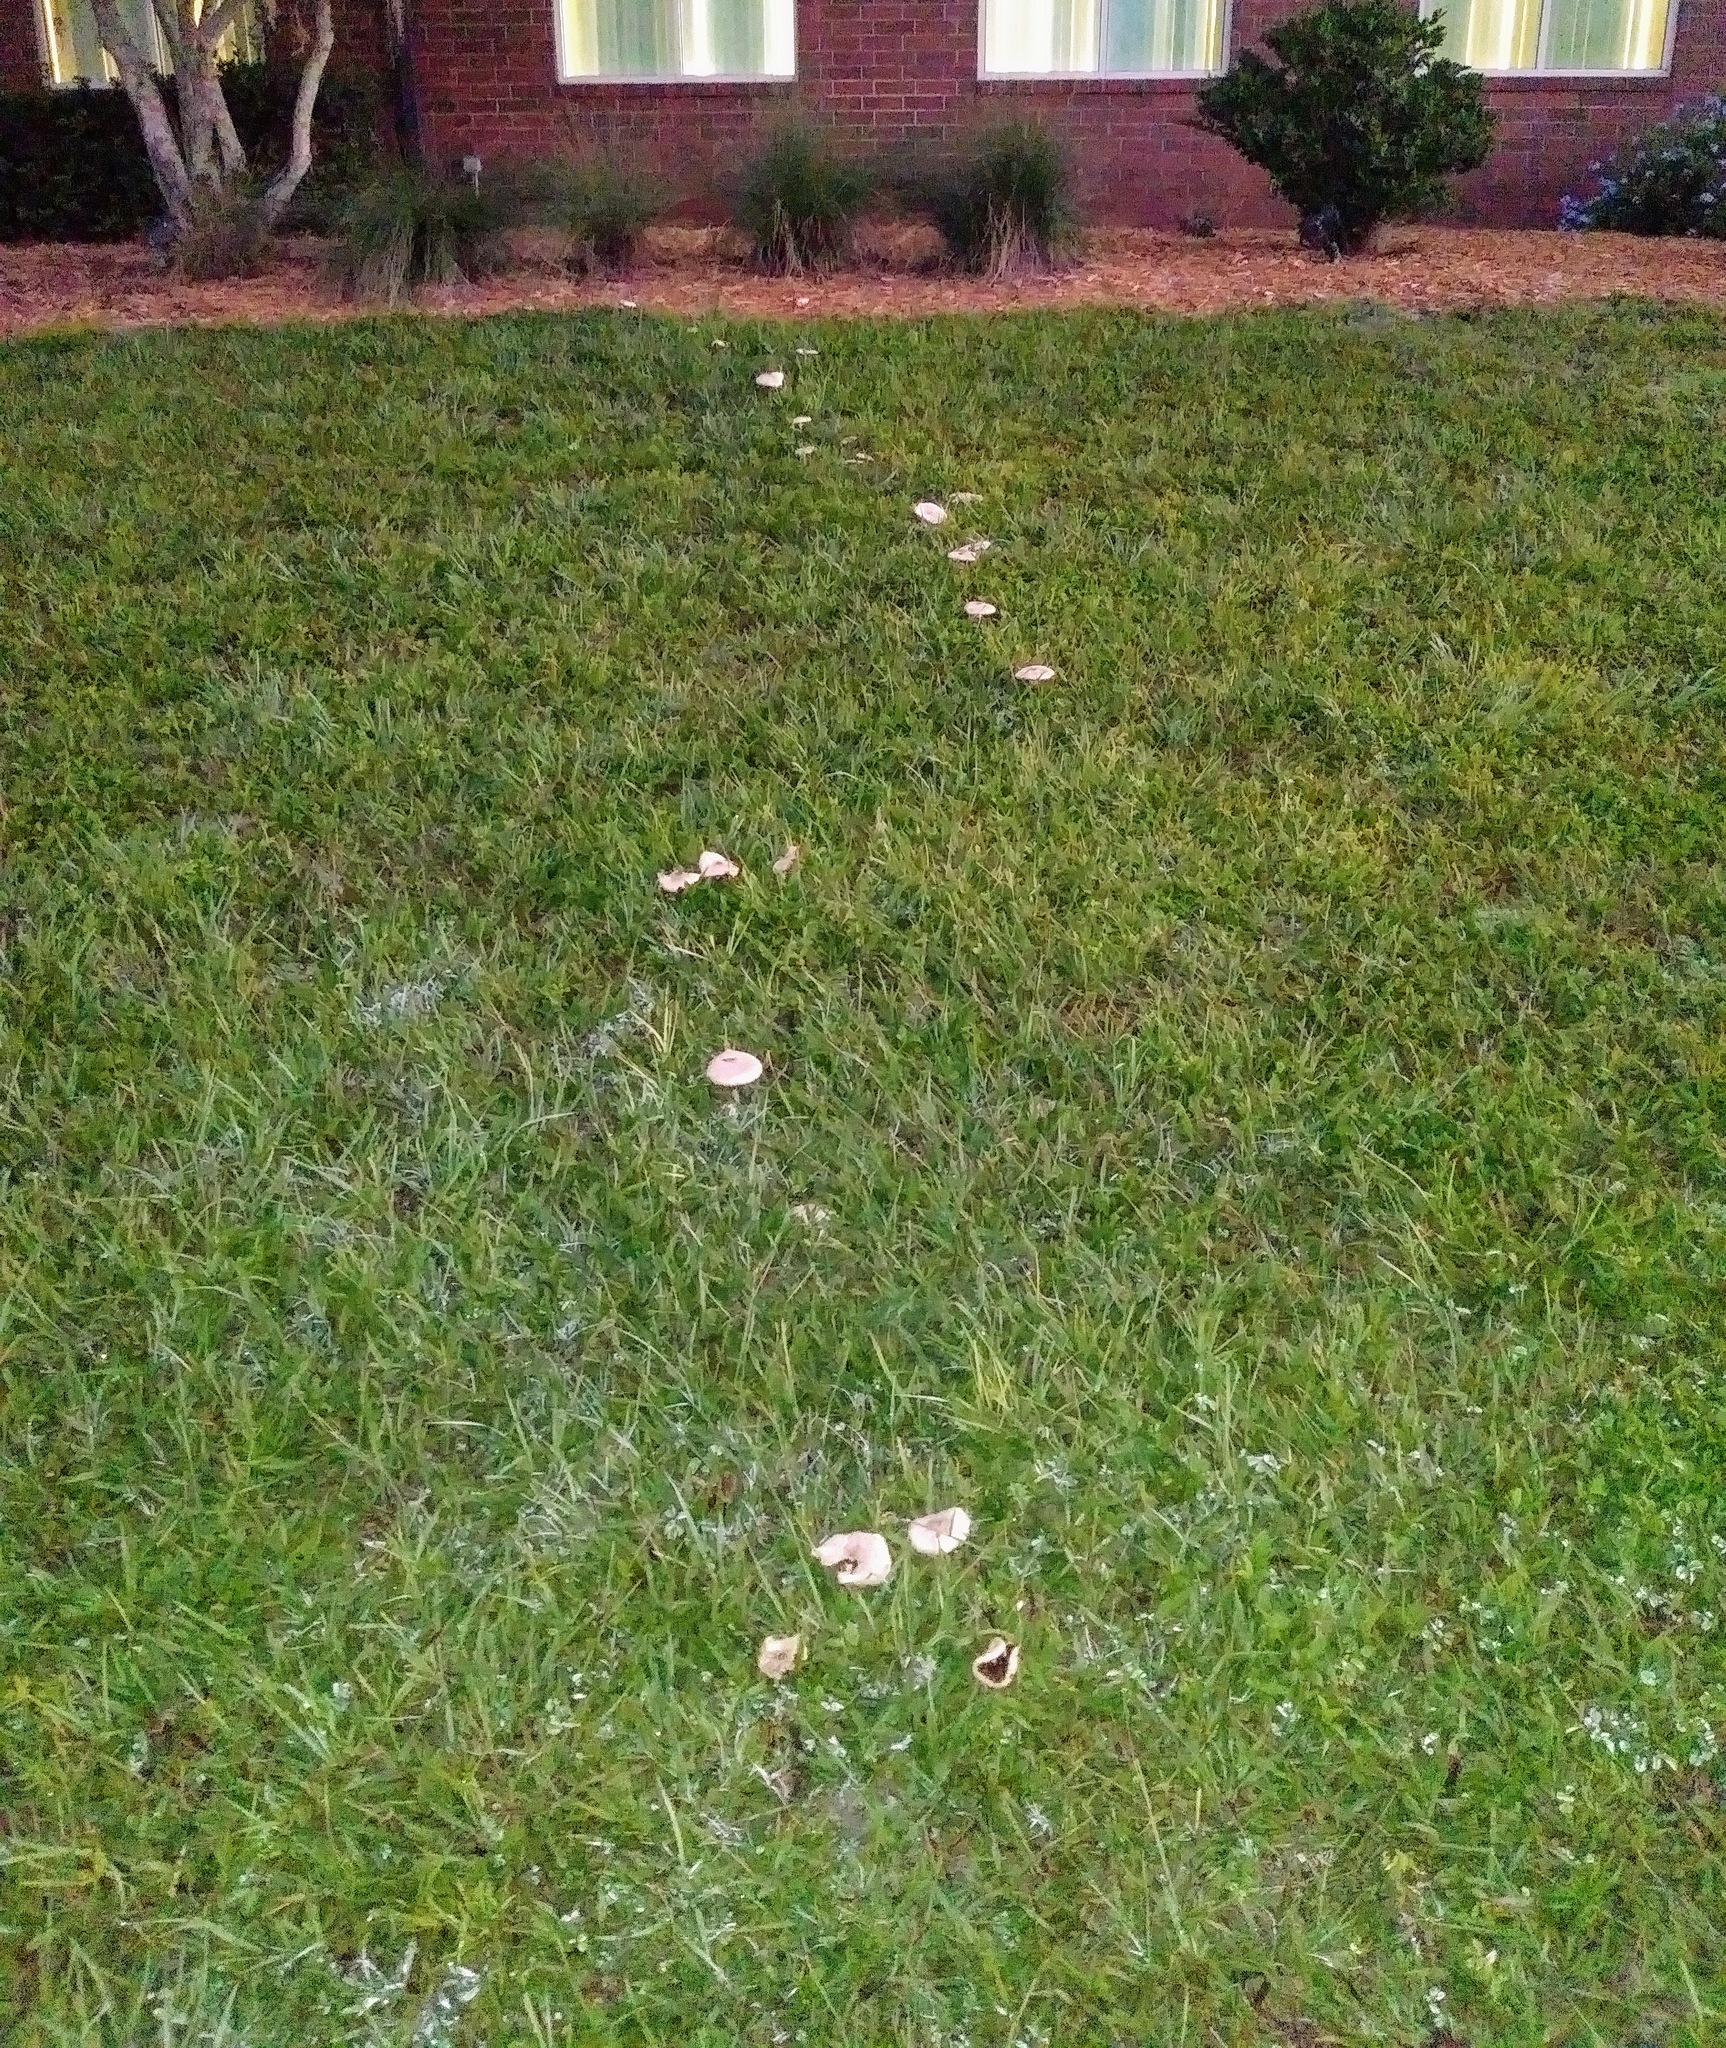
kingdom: Fungi
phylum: Basidiomycota
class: Agaricomycetes
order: Agaricales
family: Agaricaceae
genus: Chlorophyllum
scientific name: Chlorophyllum molybdites
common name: False parasol
